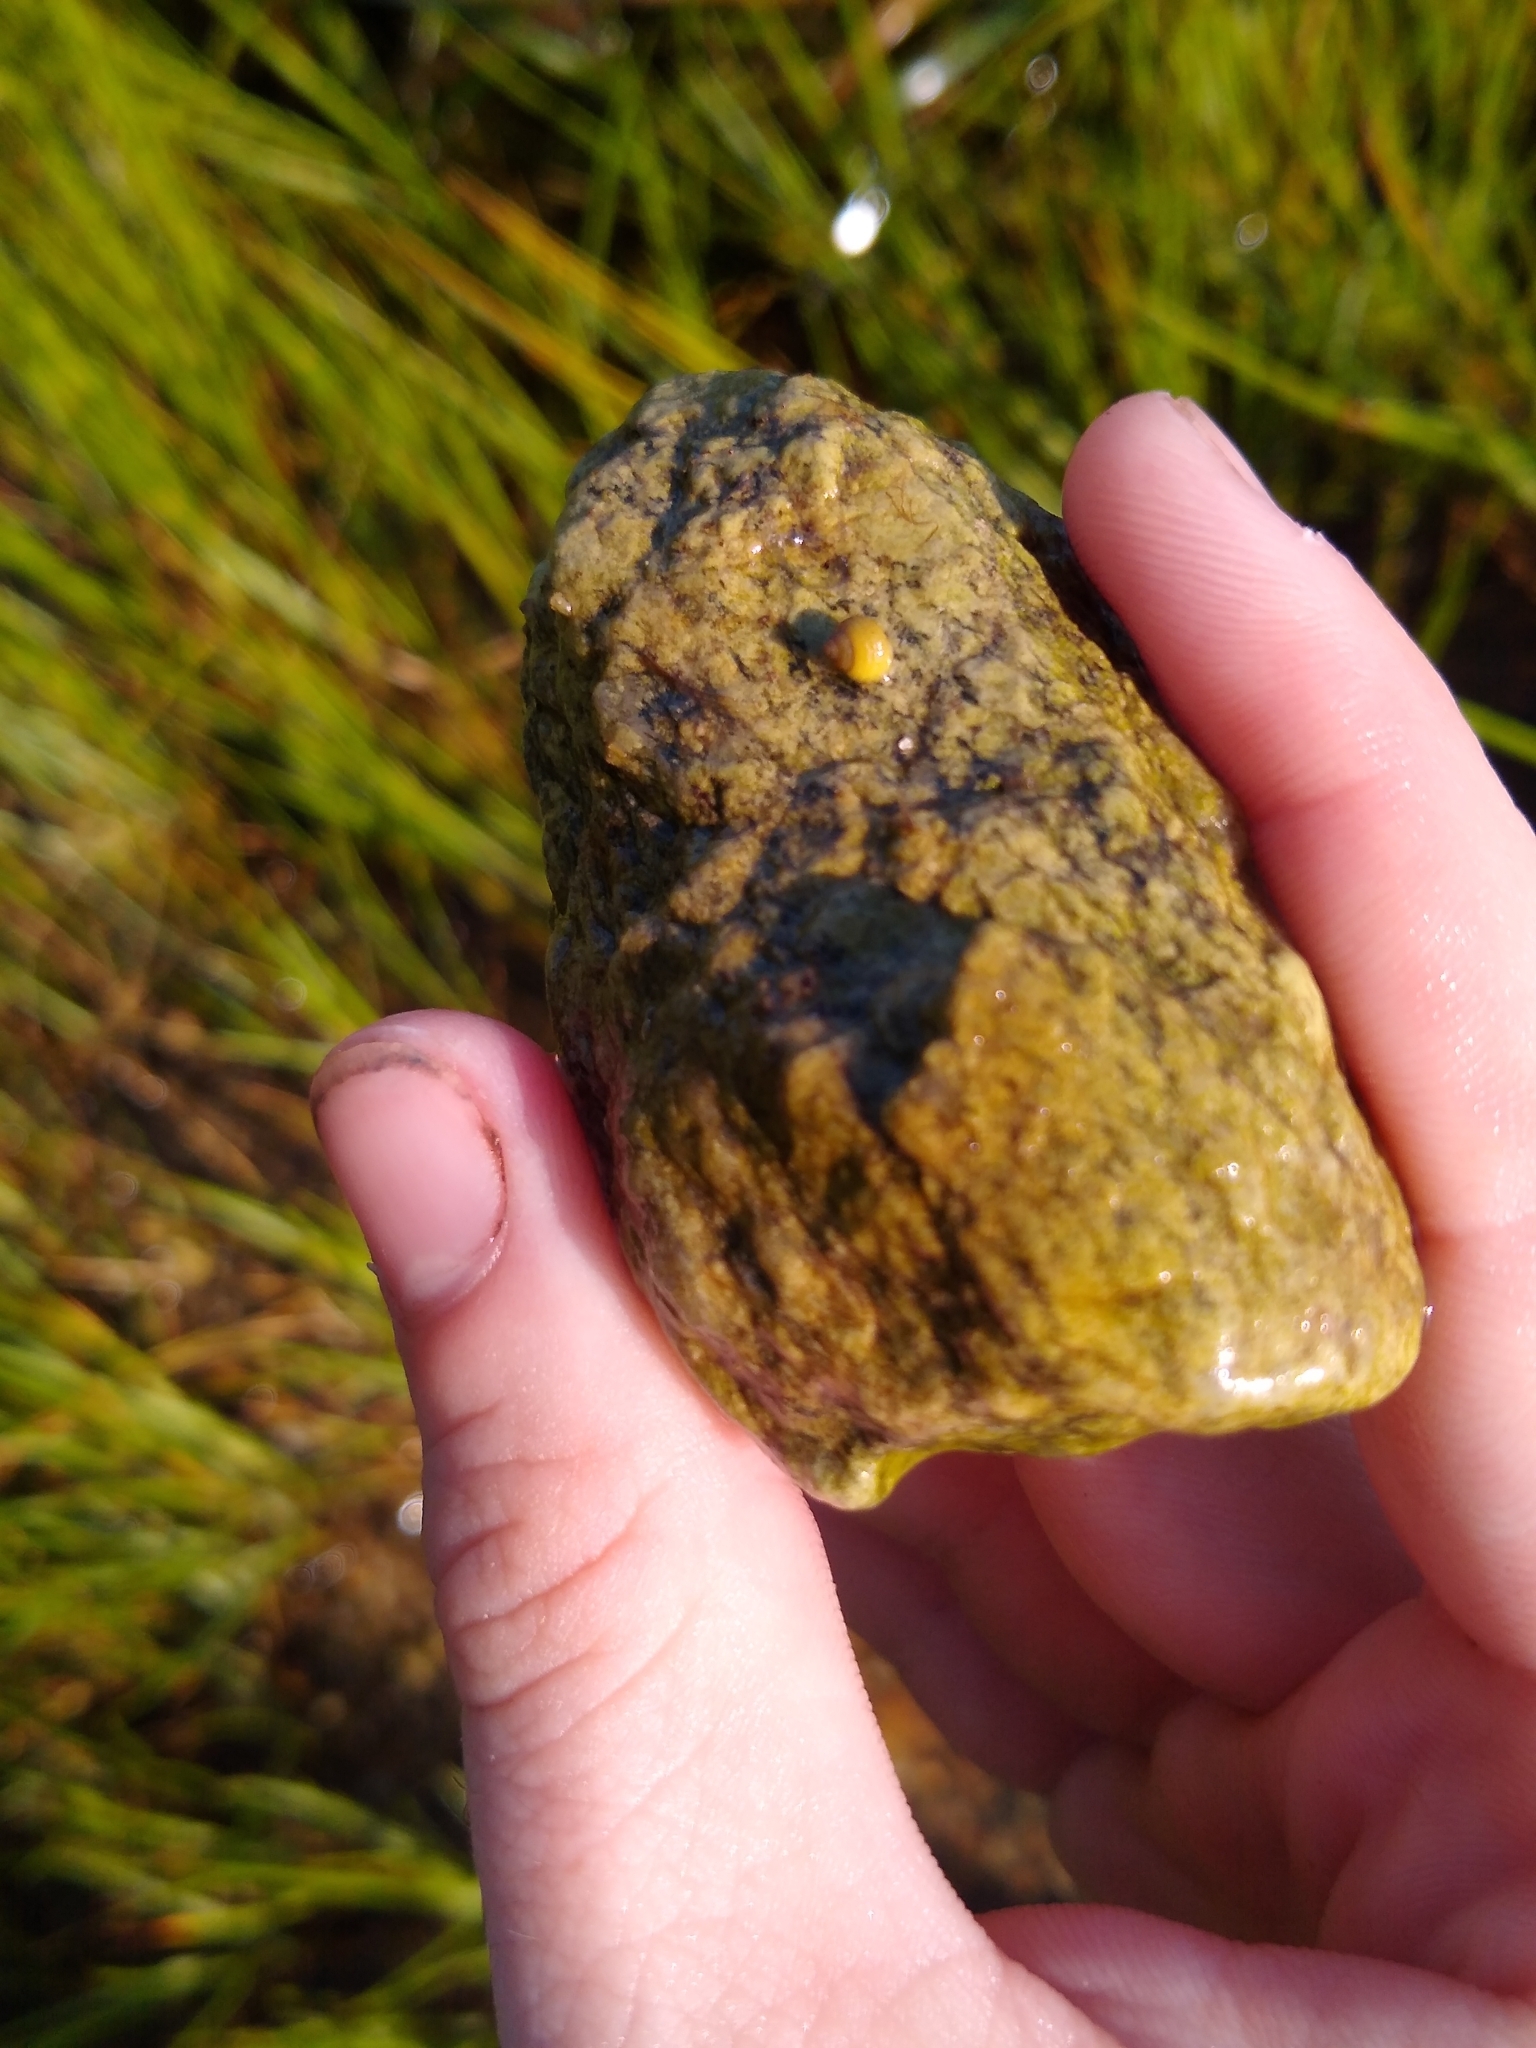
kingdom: Animalia
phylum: Mollusca
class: Gastropoda
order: Littorinimorpha
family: Littorinidae
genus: Littorina
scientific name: Littorina saxatilis
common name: Black-lined periwinkle
